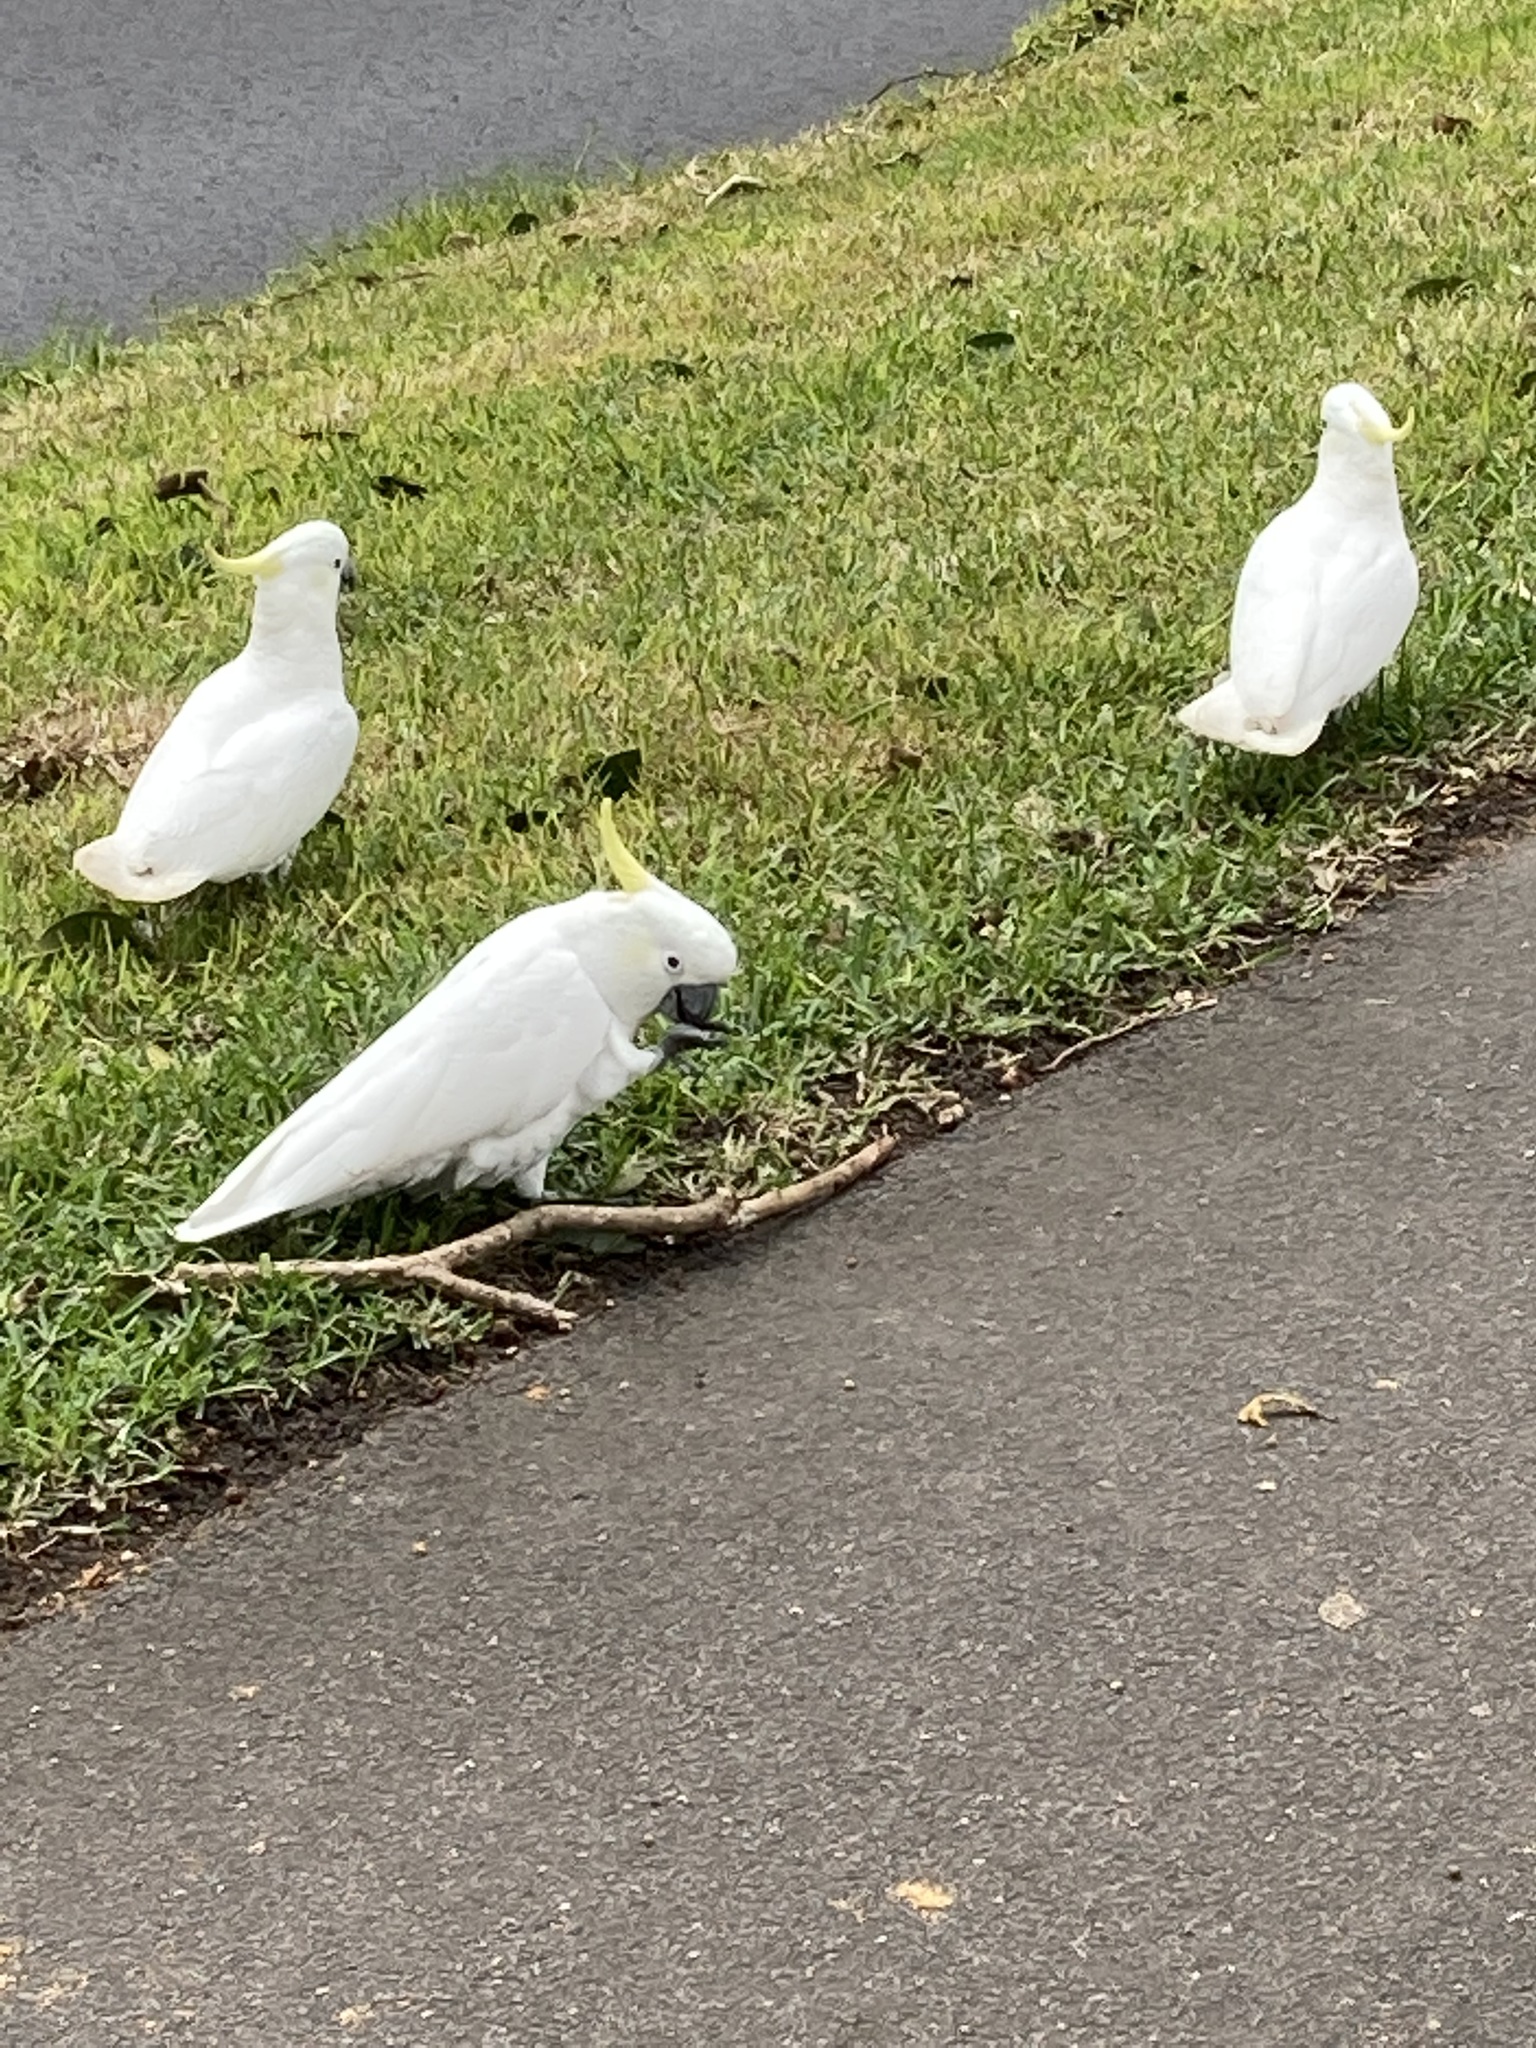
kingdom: Animalia
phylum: Chordata
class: Aves
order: Psittaciformes
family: Psittacidae
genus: Cacatua
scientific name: Cacatua galerita
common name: Sulphur-crested cockatoo
